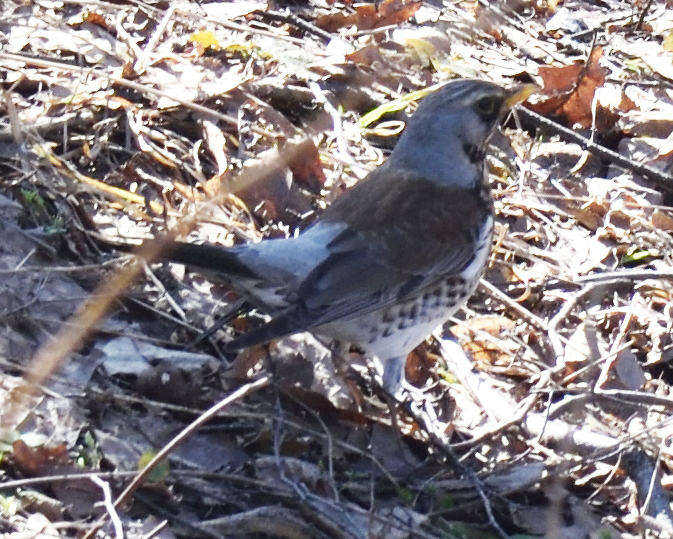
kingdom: Animalia
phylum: Chordata
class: Aves
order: Passeriformes
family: Turdidae
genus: Turdus
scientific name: Turdus pilaris
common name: Fieldfare
